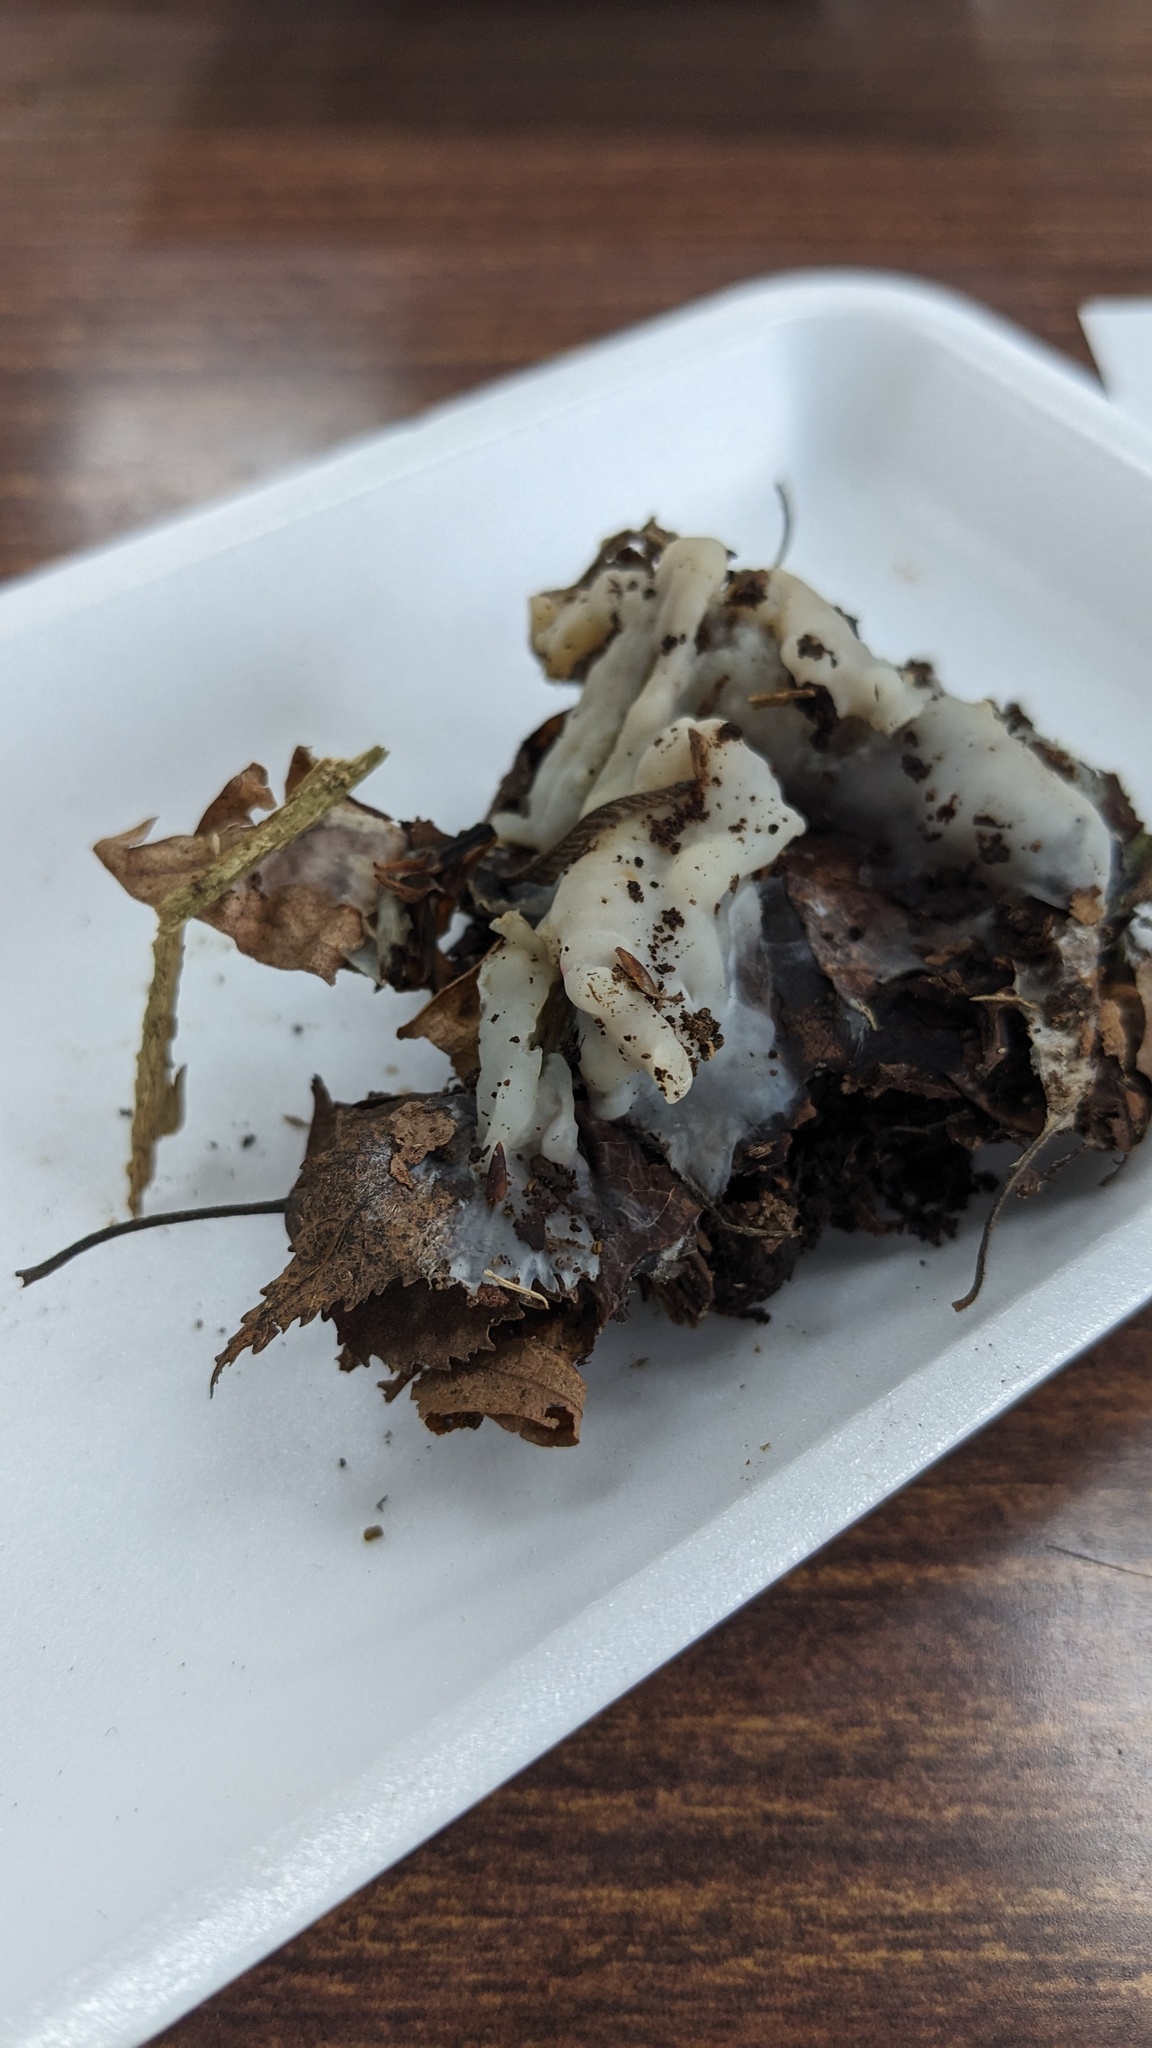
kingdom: Fungi
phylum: Basidiomycota
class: Agaricomycetes
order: Sebacinales
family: Sebacinaceae
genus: Sebacina
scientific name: Sebacina incrustans
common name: Enveloping crust
